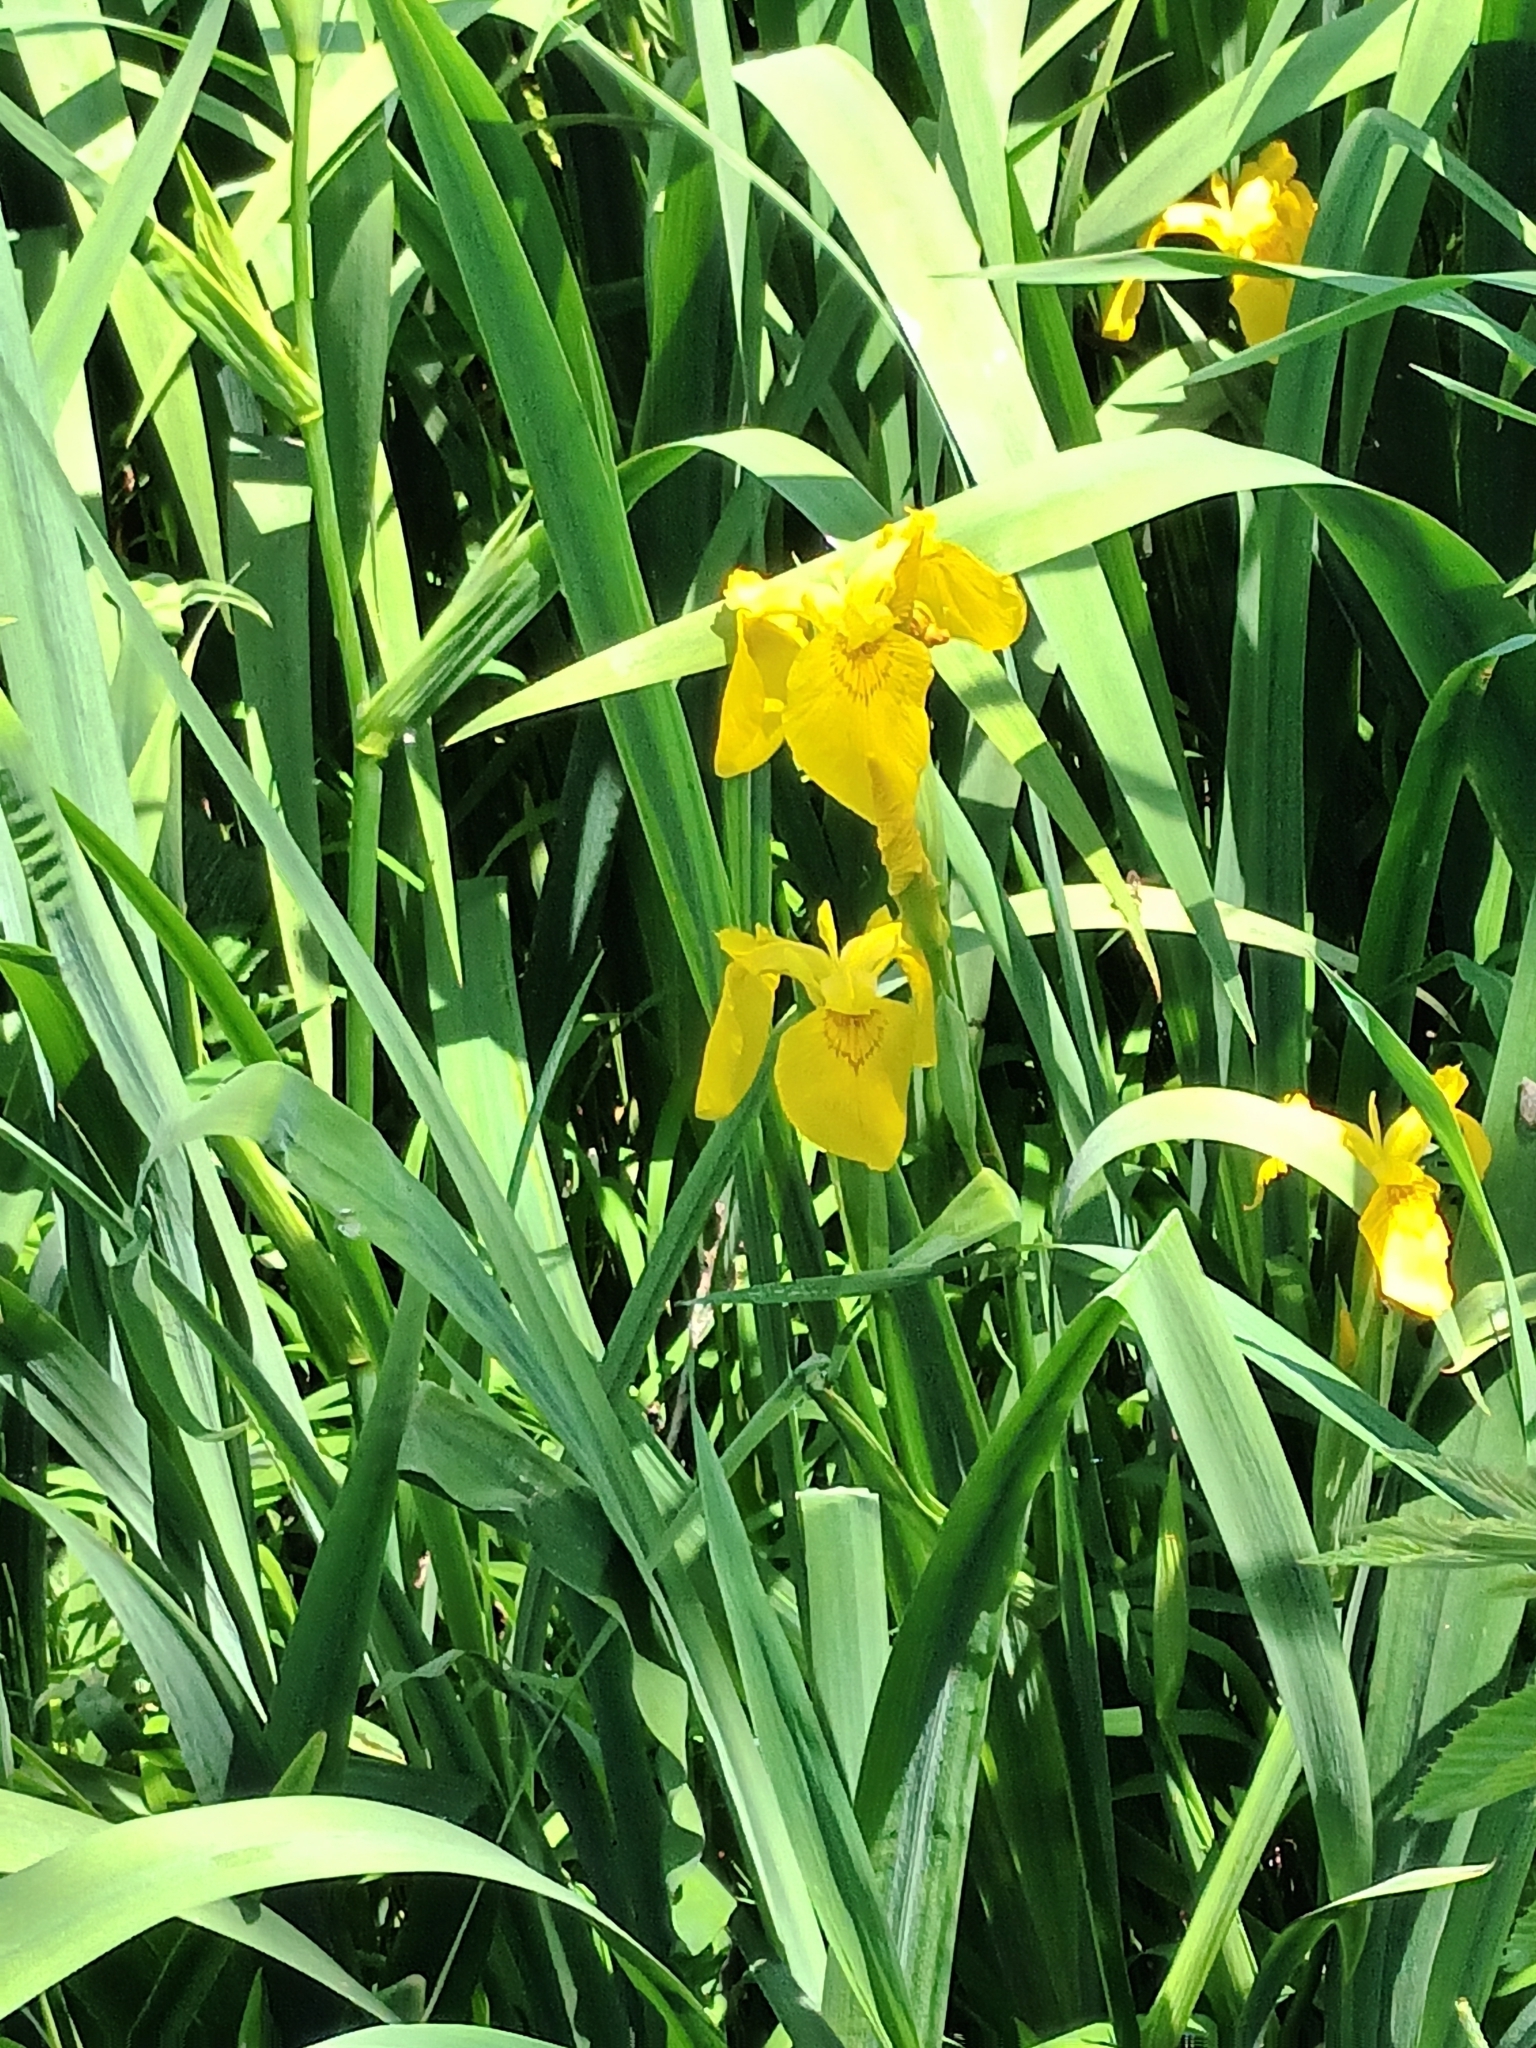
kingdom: Plantae
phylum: Tracheophyta
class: Liliopsida
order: Asparagales
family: Iridaceae
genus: Iris
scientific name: Iris pseudacorus
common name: Yellow flag
